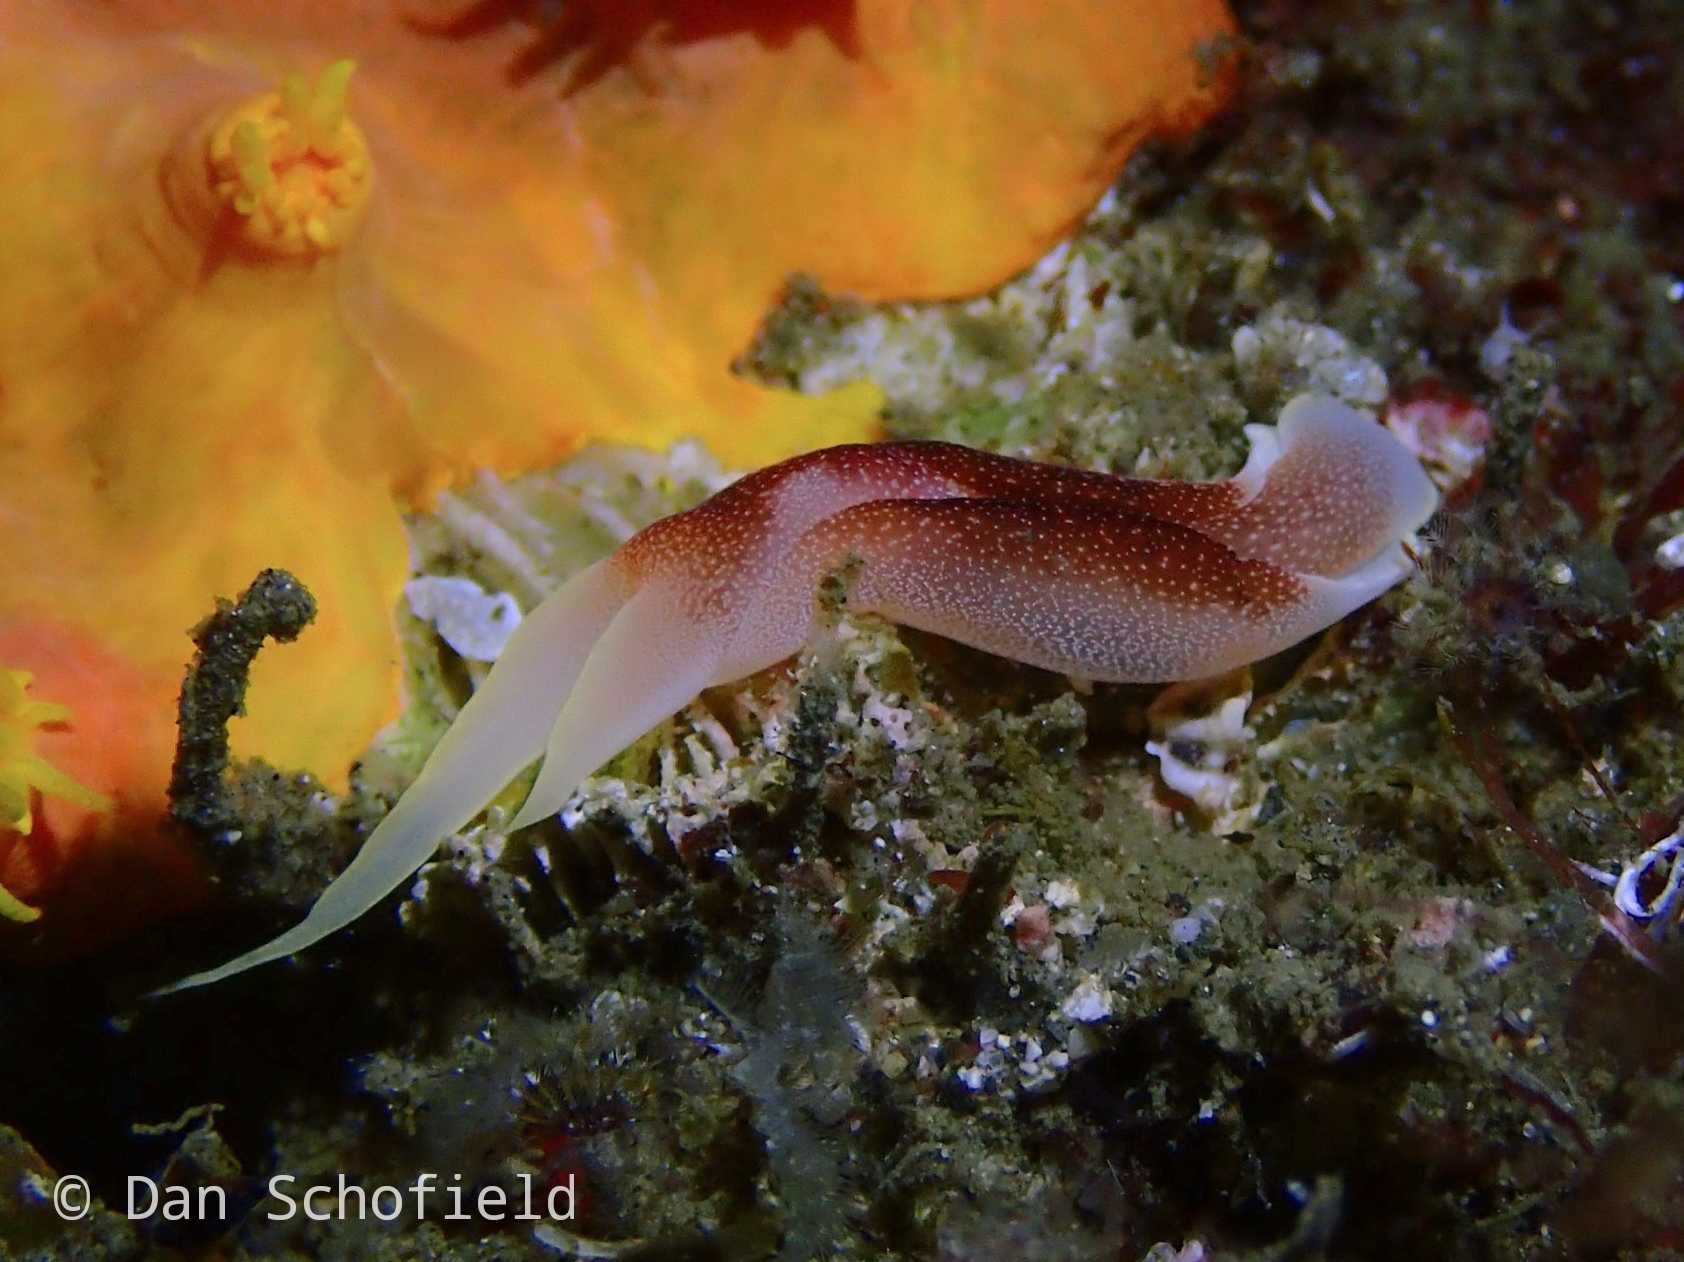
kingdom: Animalia
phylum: Mollusca
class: Gastropoda
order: Cephalaspidea
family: Aglajidae
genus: Chelidonura
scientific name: Chelidonura amoena
